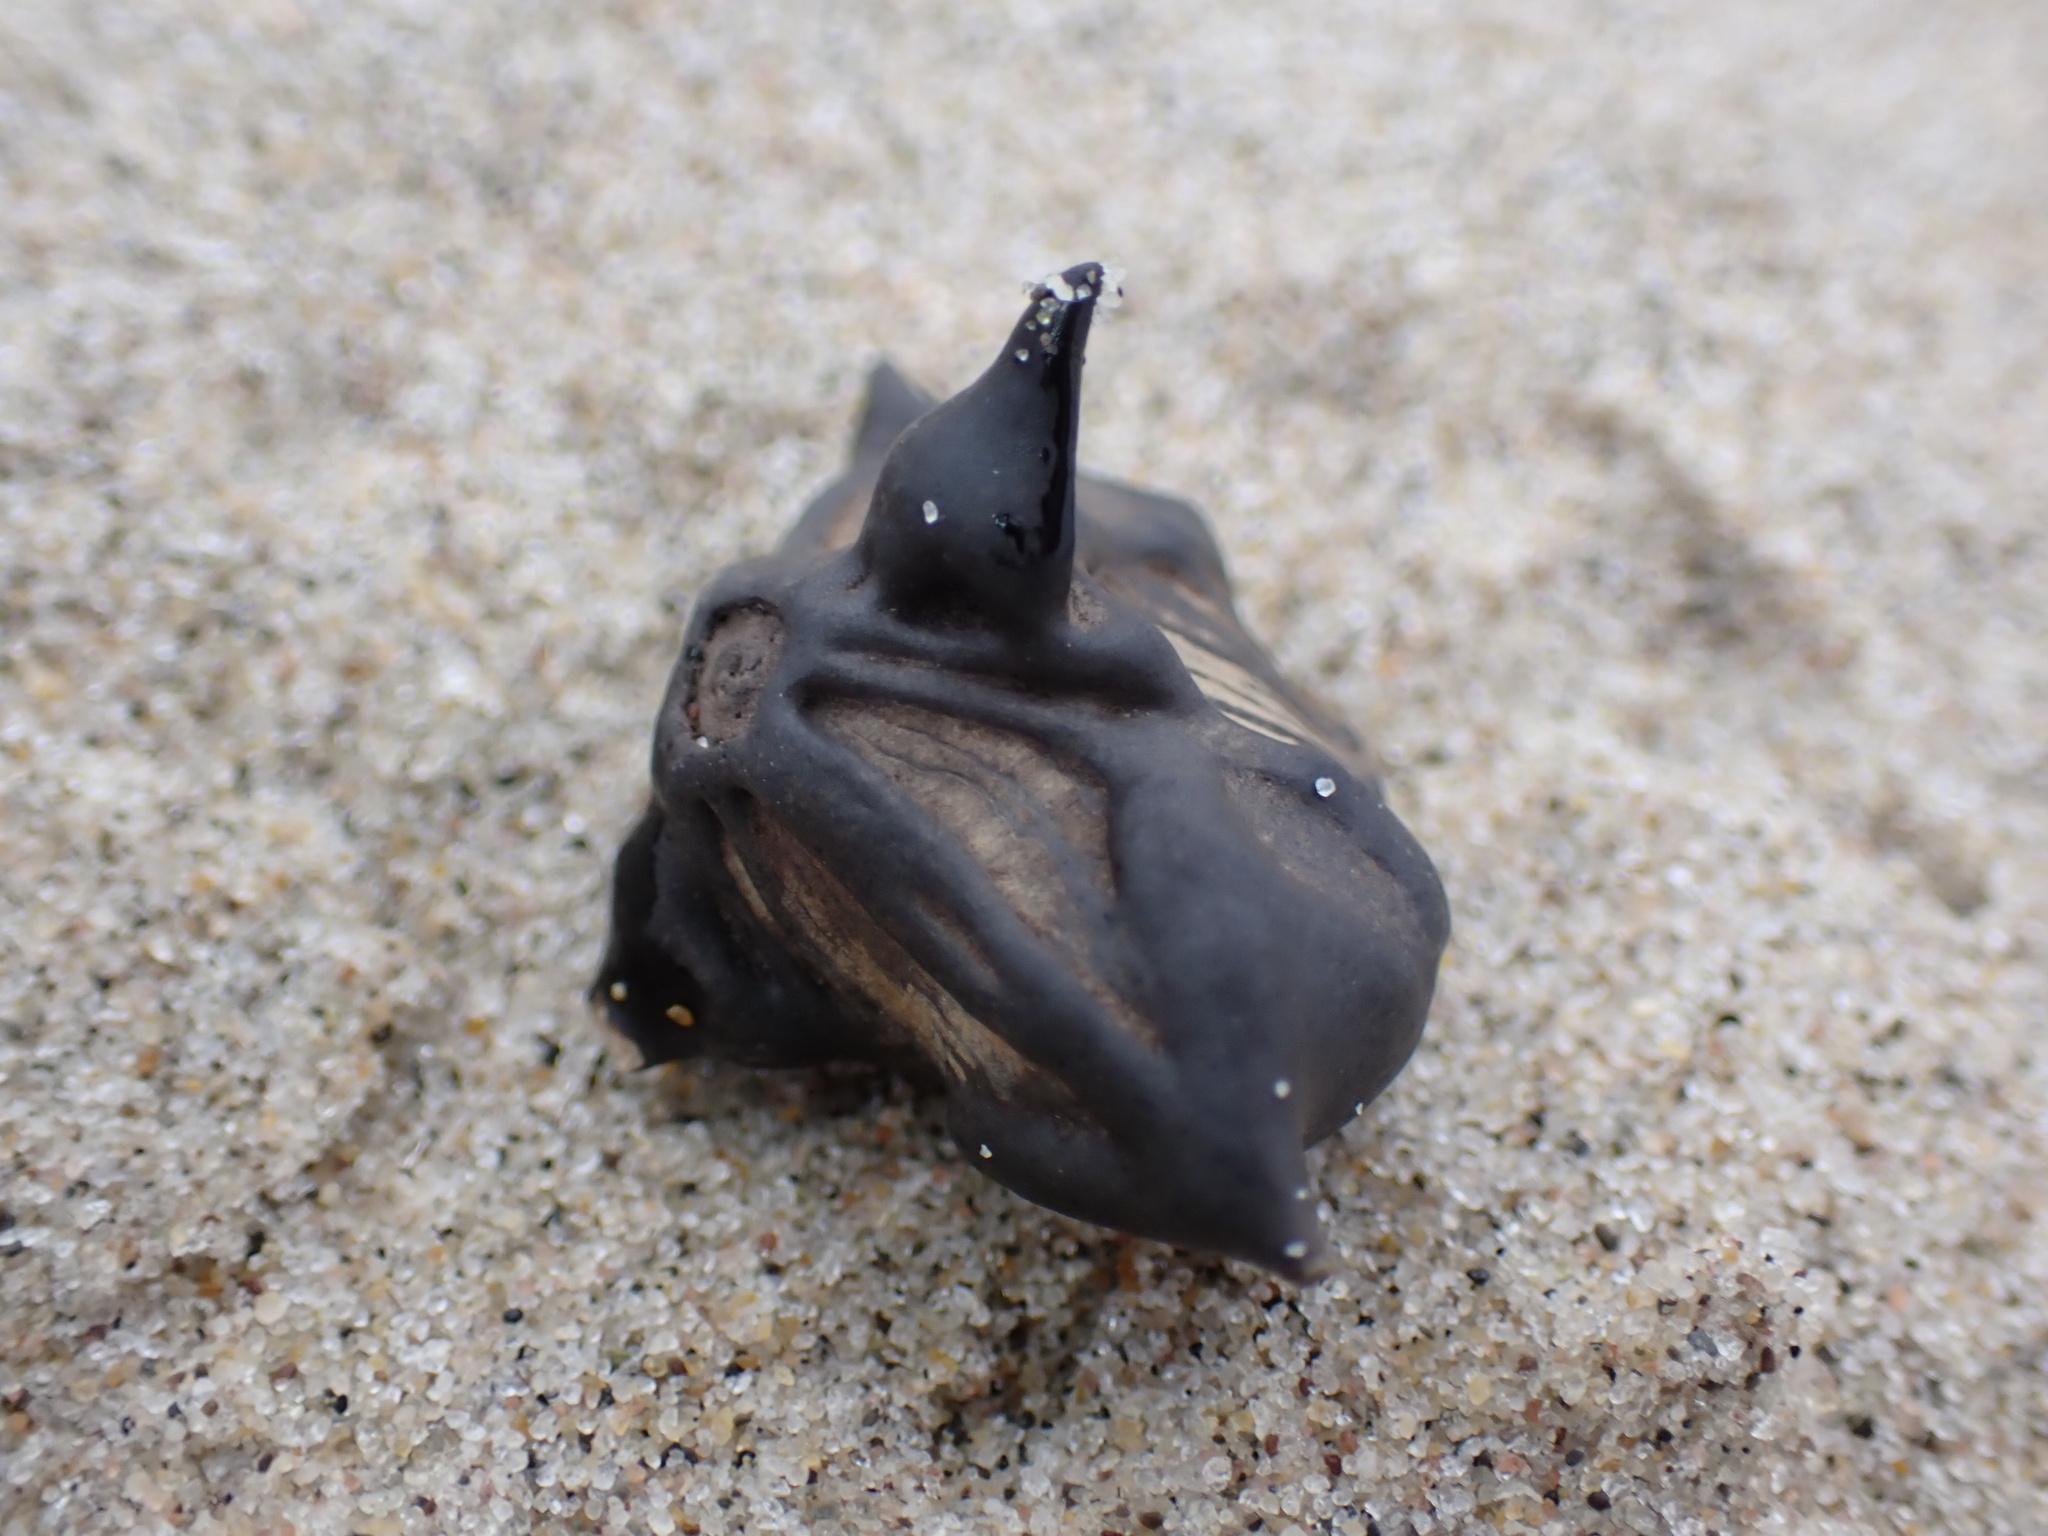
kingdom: Plantae
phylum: Tracheophyta
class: Magnoliopsida
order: Myrtales
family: Lythraceae
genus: Trapa
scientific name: Trapa natans
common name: Water chestnut
